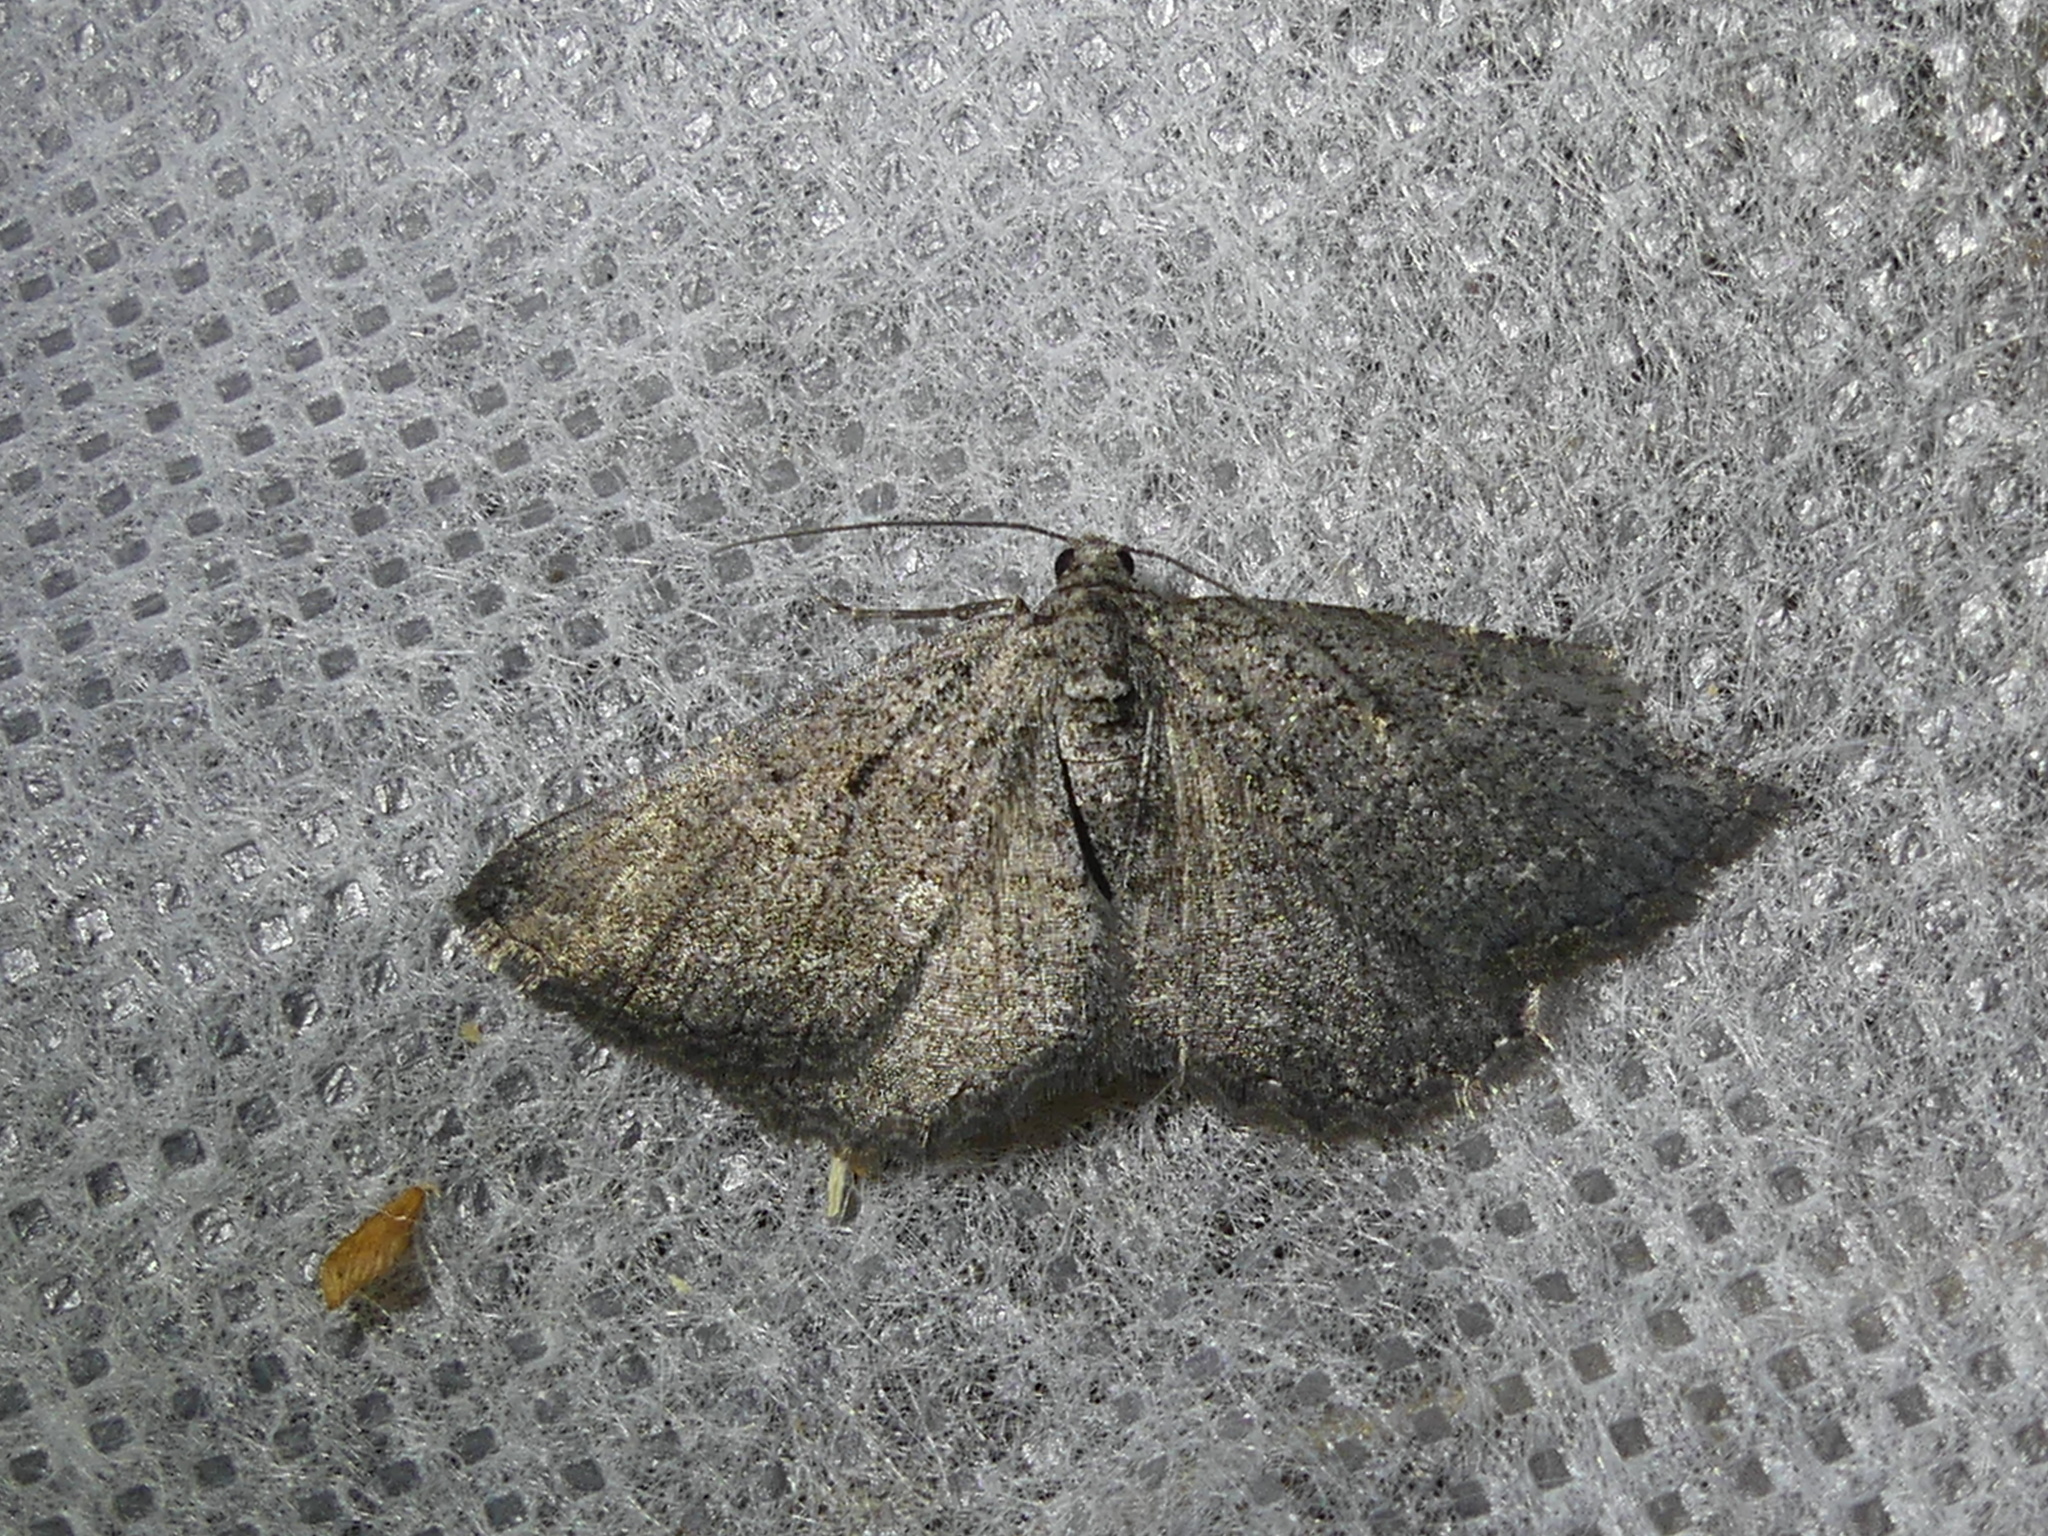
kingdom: Animalia
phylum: Arthropoda
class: Insecta
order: Lepidoptera
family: Geometridae
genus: Rhoptria
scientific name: Rhoptria asperaria
